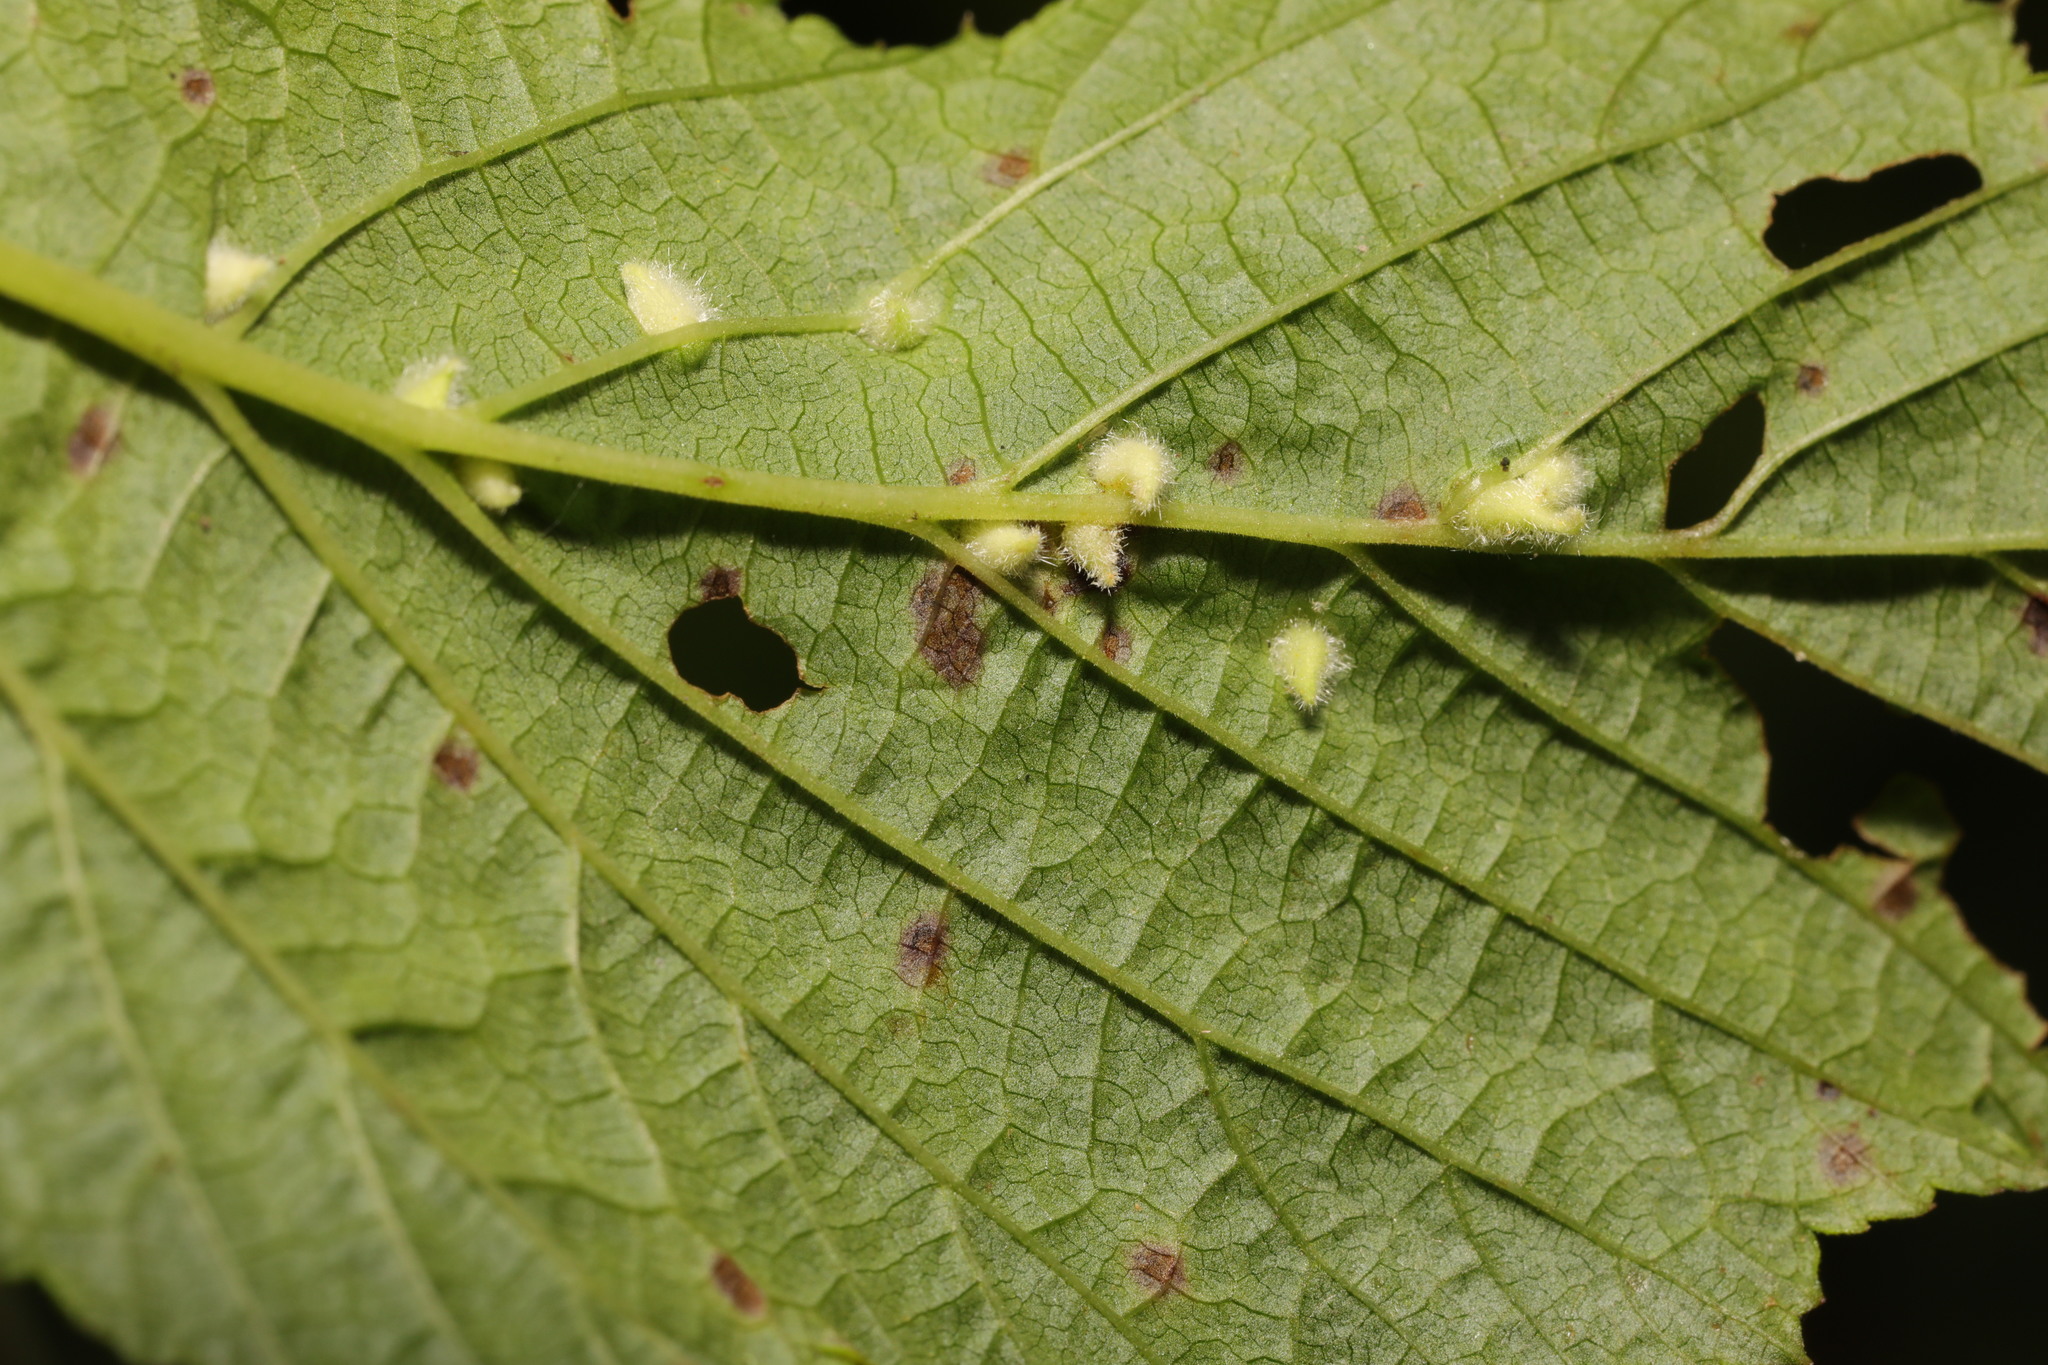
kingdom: Animalia
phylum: Arthropoda
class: Insecta
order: Diptera
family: Cecidomyiidae
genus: Dasineura
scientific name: Dasineura ulmaria
